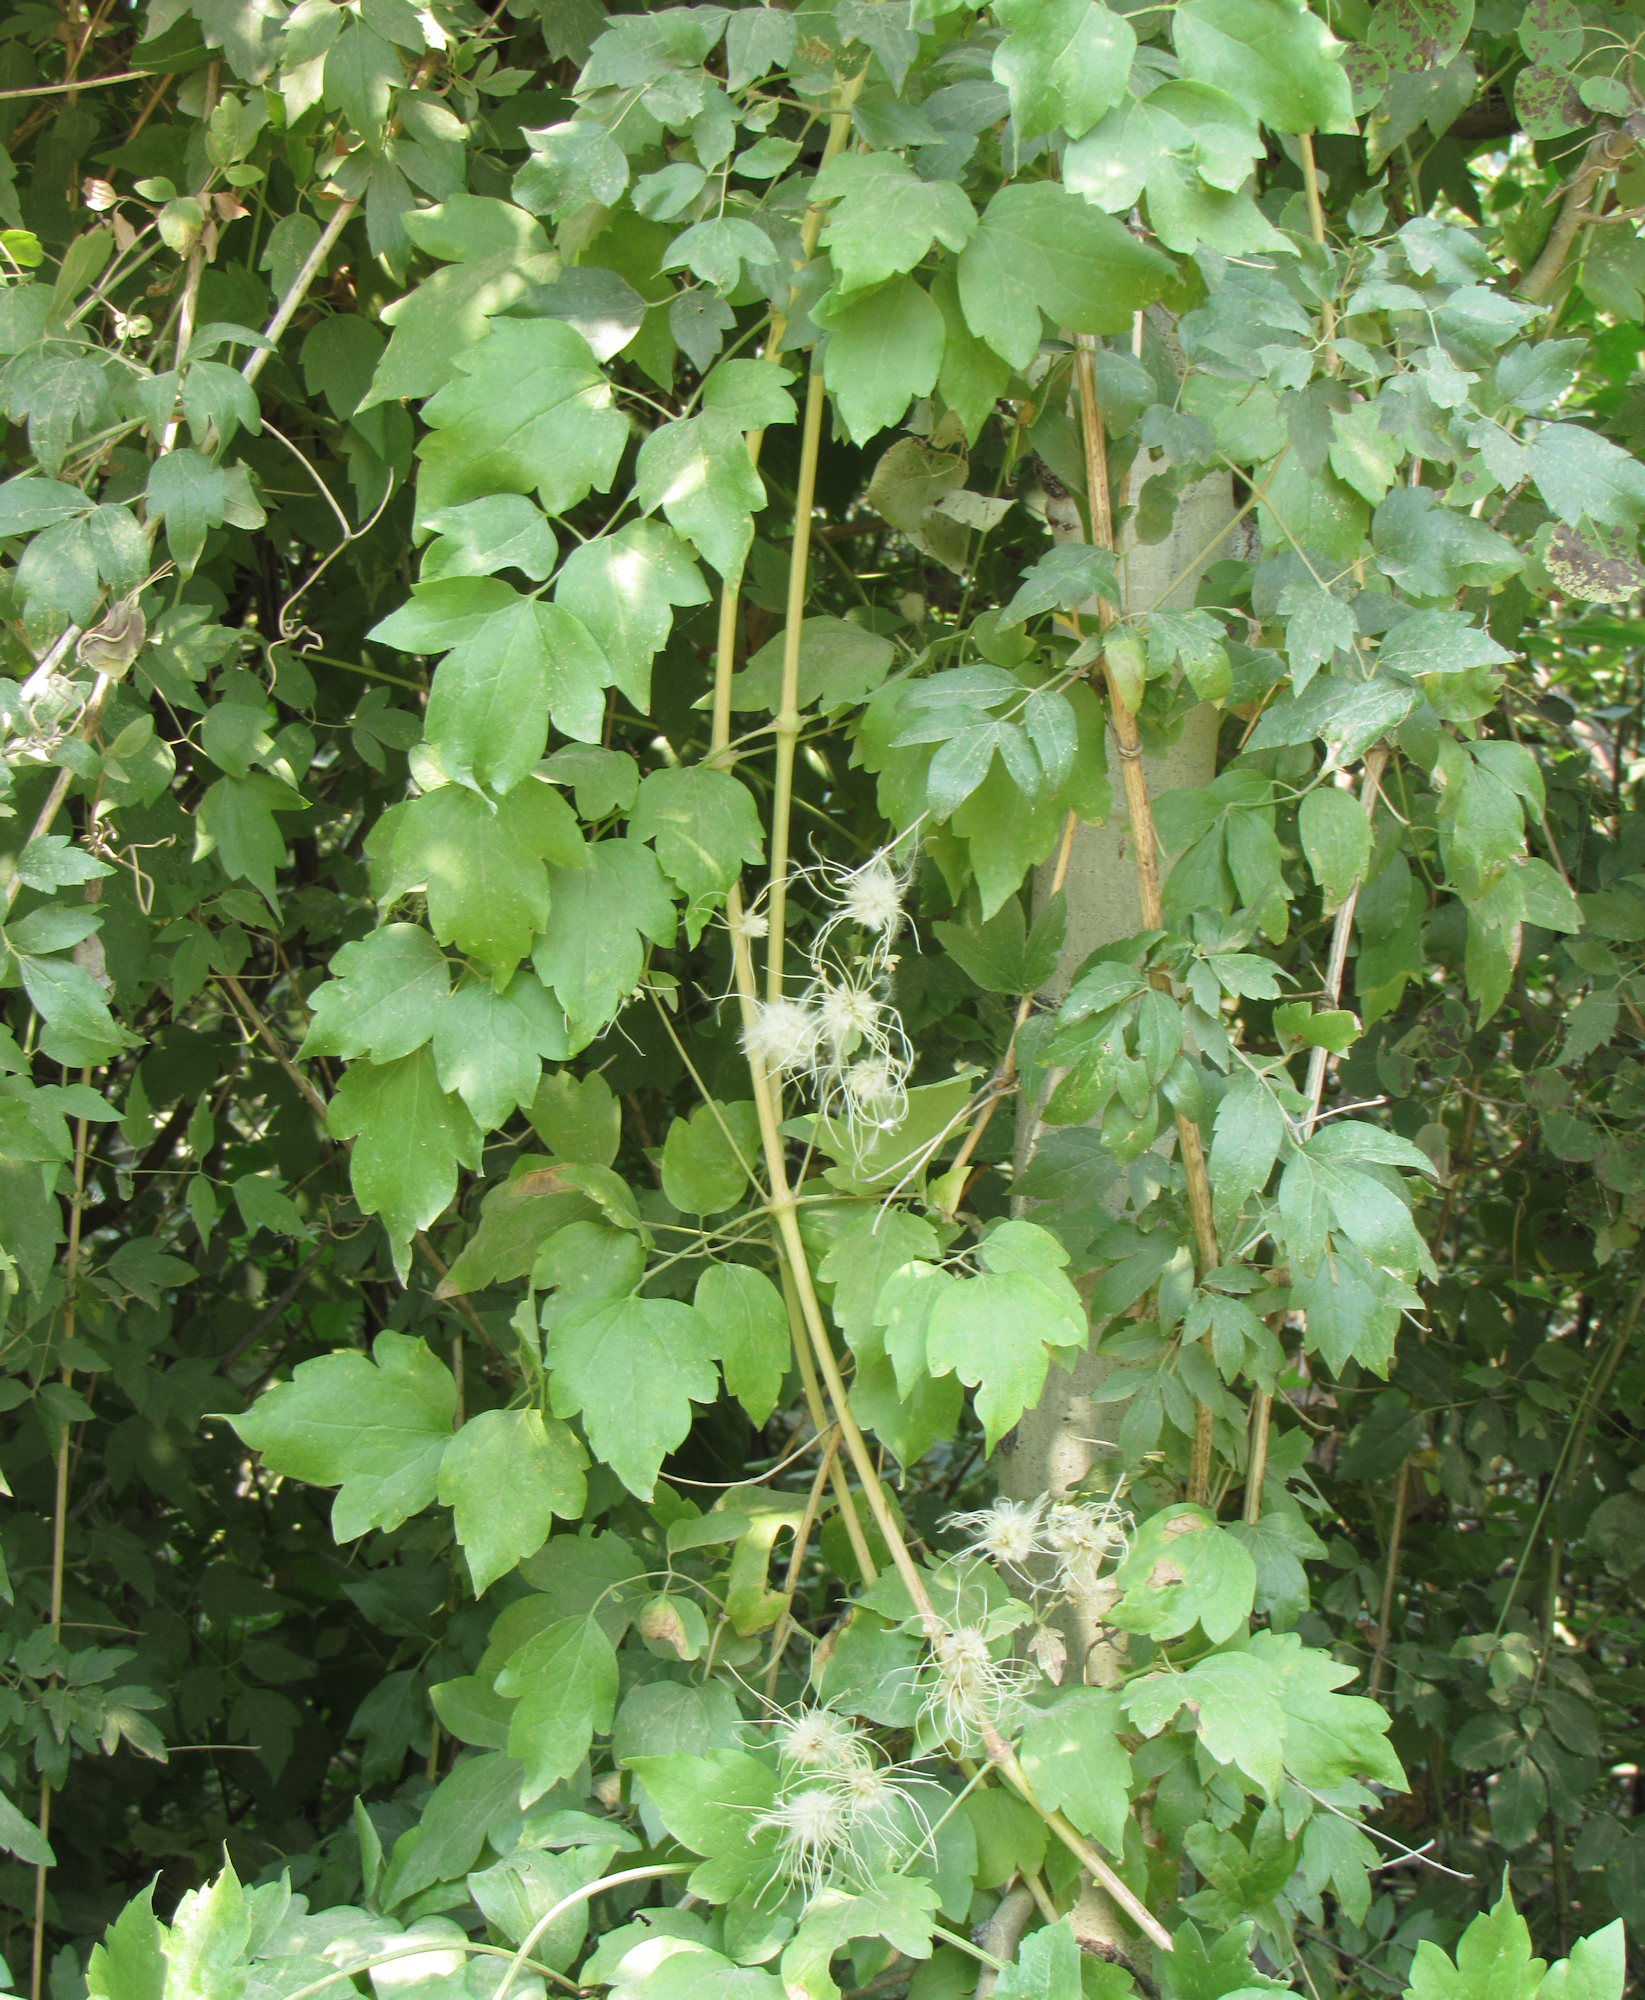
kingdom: Plantae
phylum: Tracheophyta
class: Magnoliopsida
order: Ranunculales
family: Ranunculaceae
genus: Clematis
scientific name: Clematis ligusticifolia
